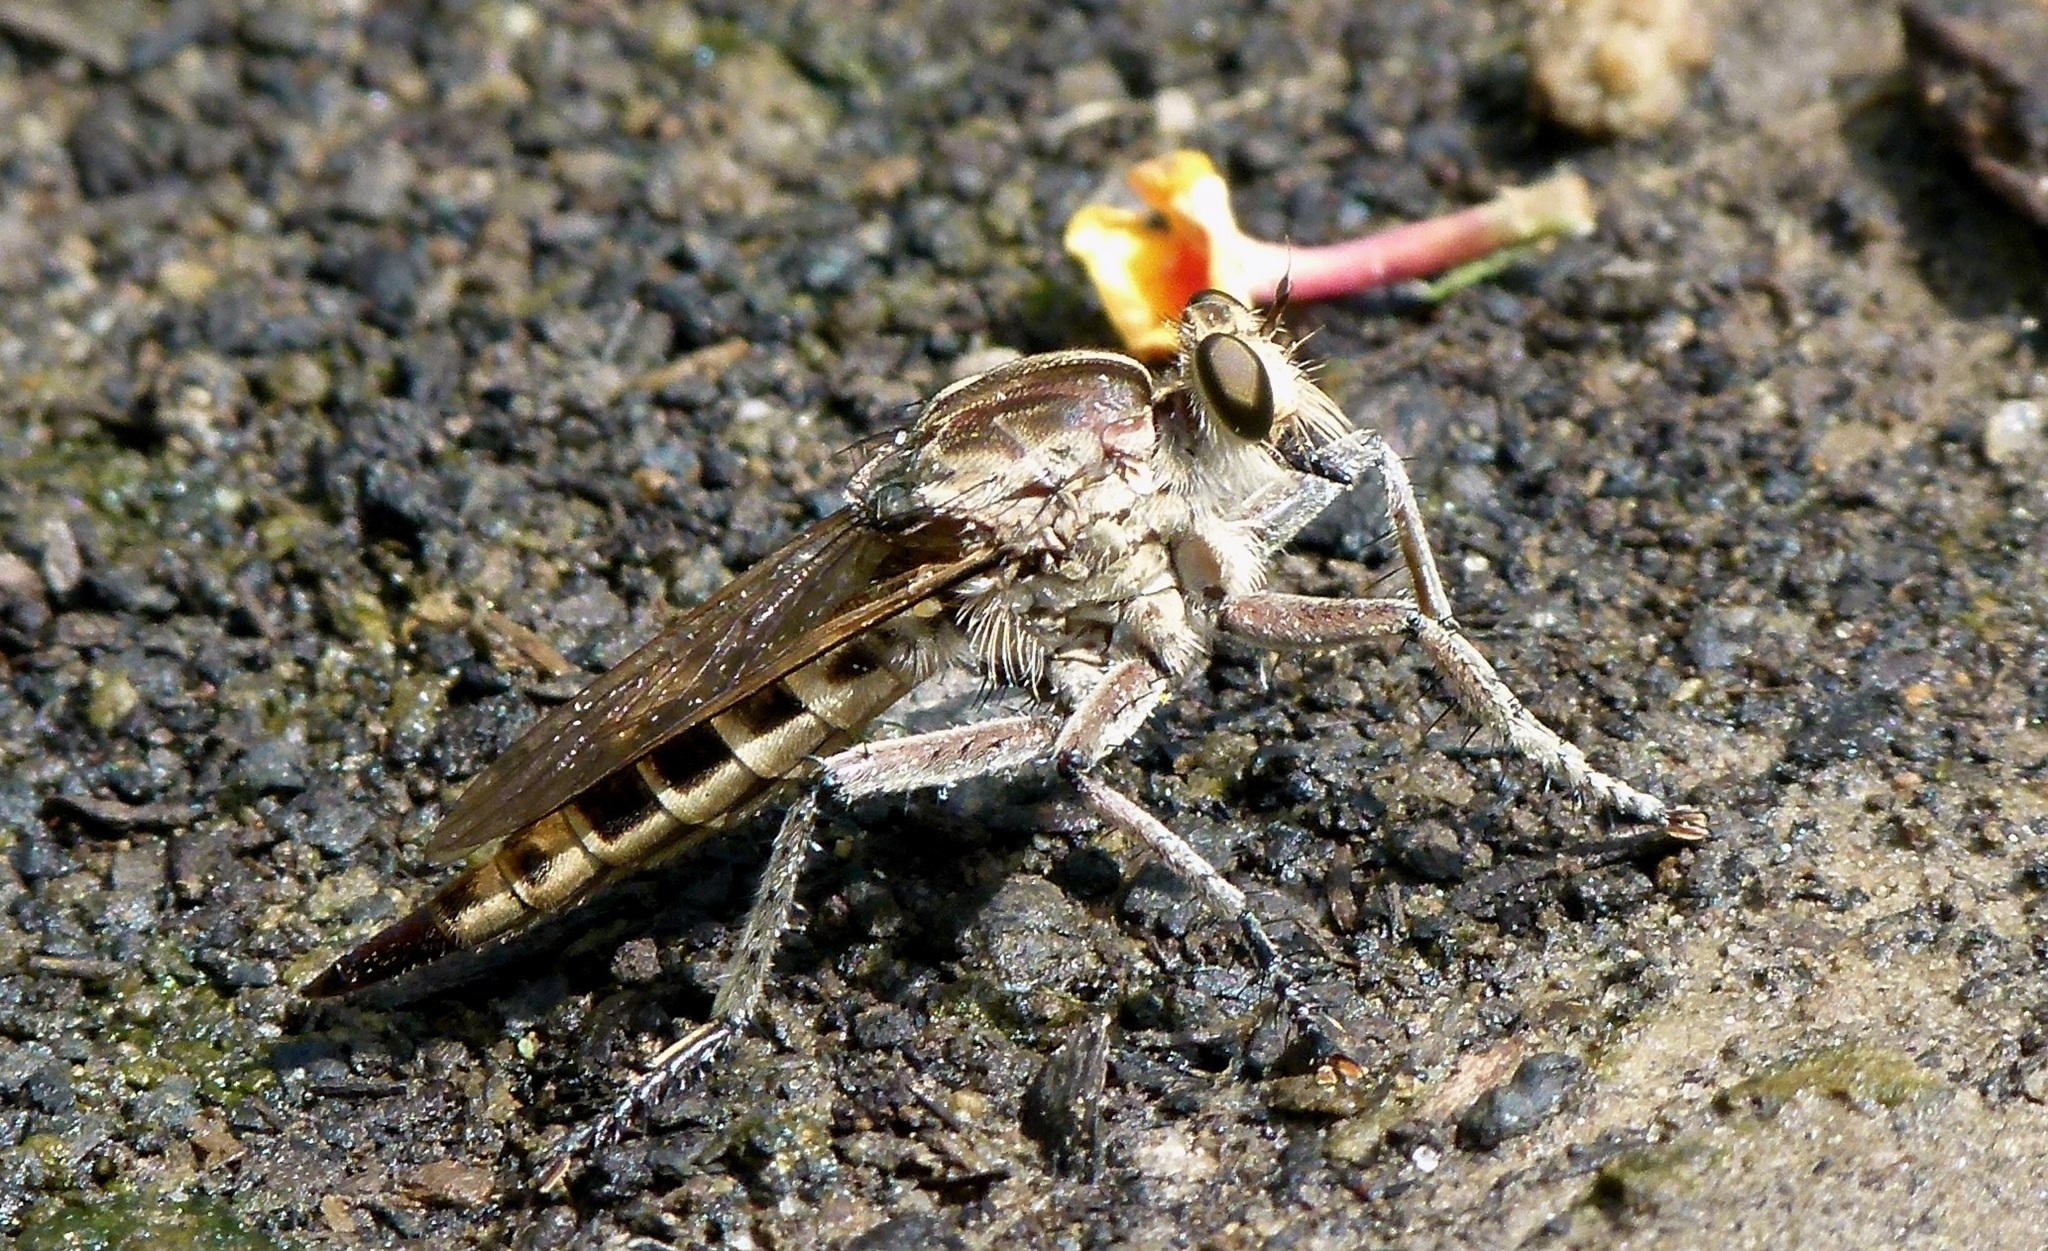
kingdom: Animalia
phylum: Arthropoda
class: Insecta
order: Diptera
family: Asilidae
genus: Triorla
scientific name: Triorla interrupta
